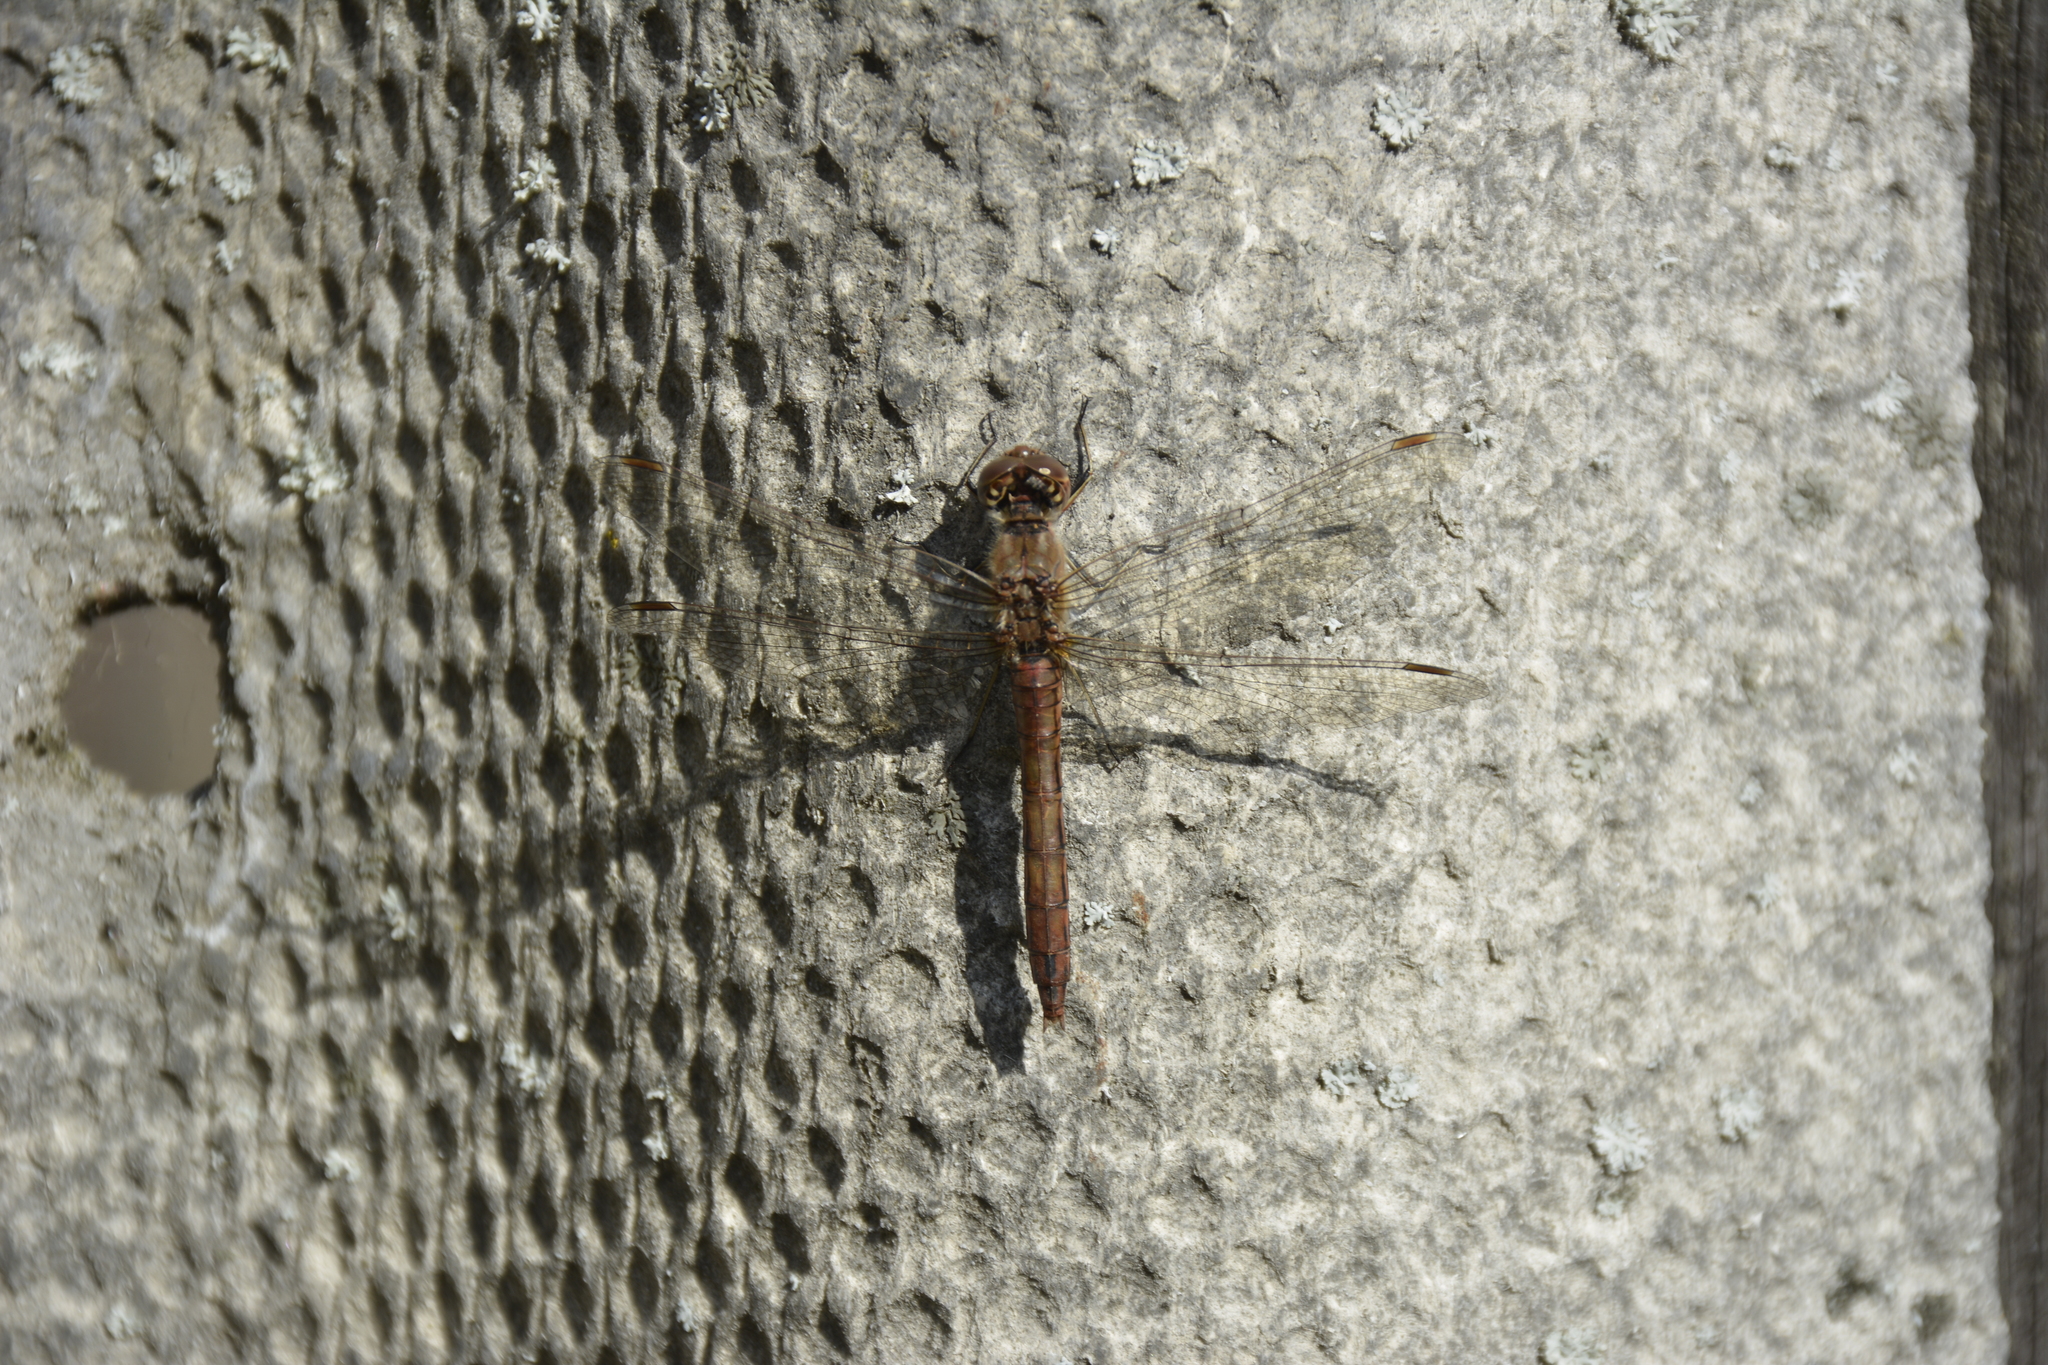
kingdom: Animalia
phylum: Arthropoda
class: Insecta
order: Odonata
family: Libellulidae
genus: Sympetrum
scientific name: Sympetrum vulgatum
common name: Vagrant darter
